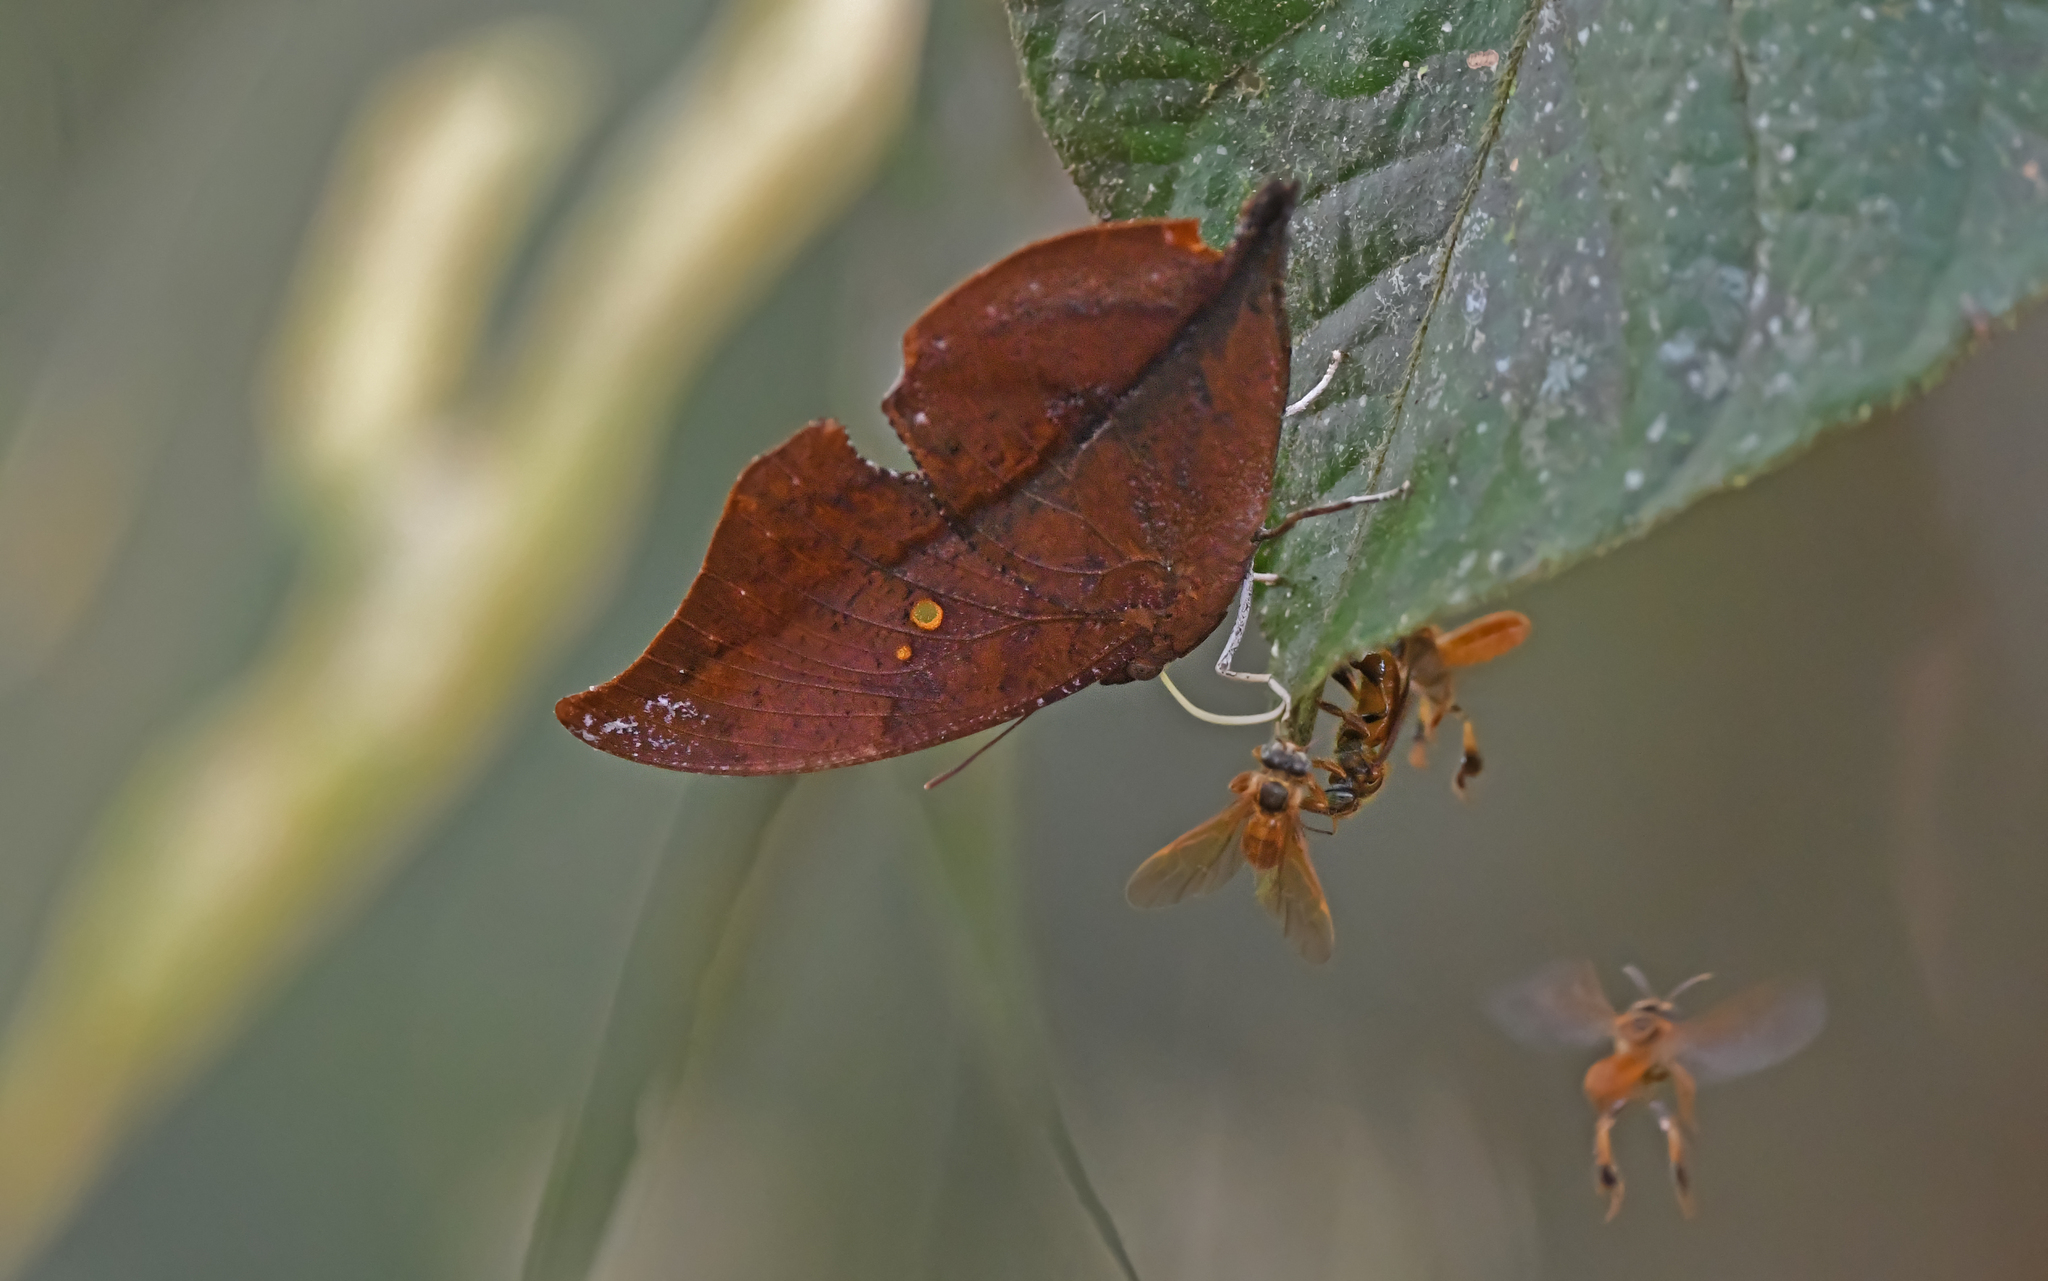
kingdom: Animalia
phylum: Arthropoda
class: Insecta
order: Lepidoptera
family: Nymphalidae
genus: Zaretis
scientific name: Zaretis syene
